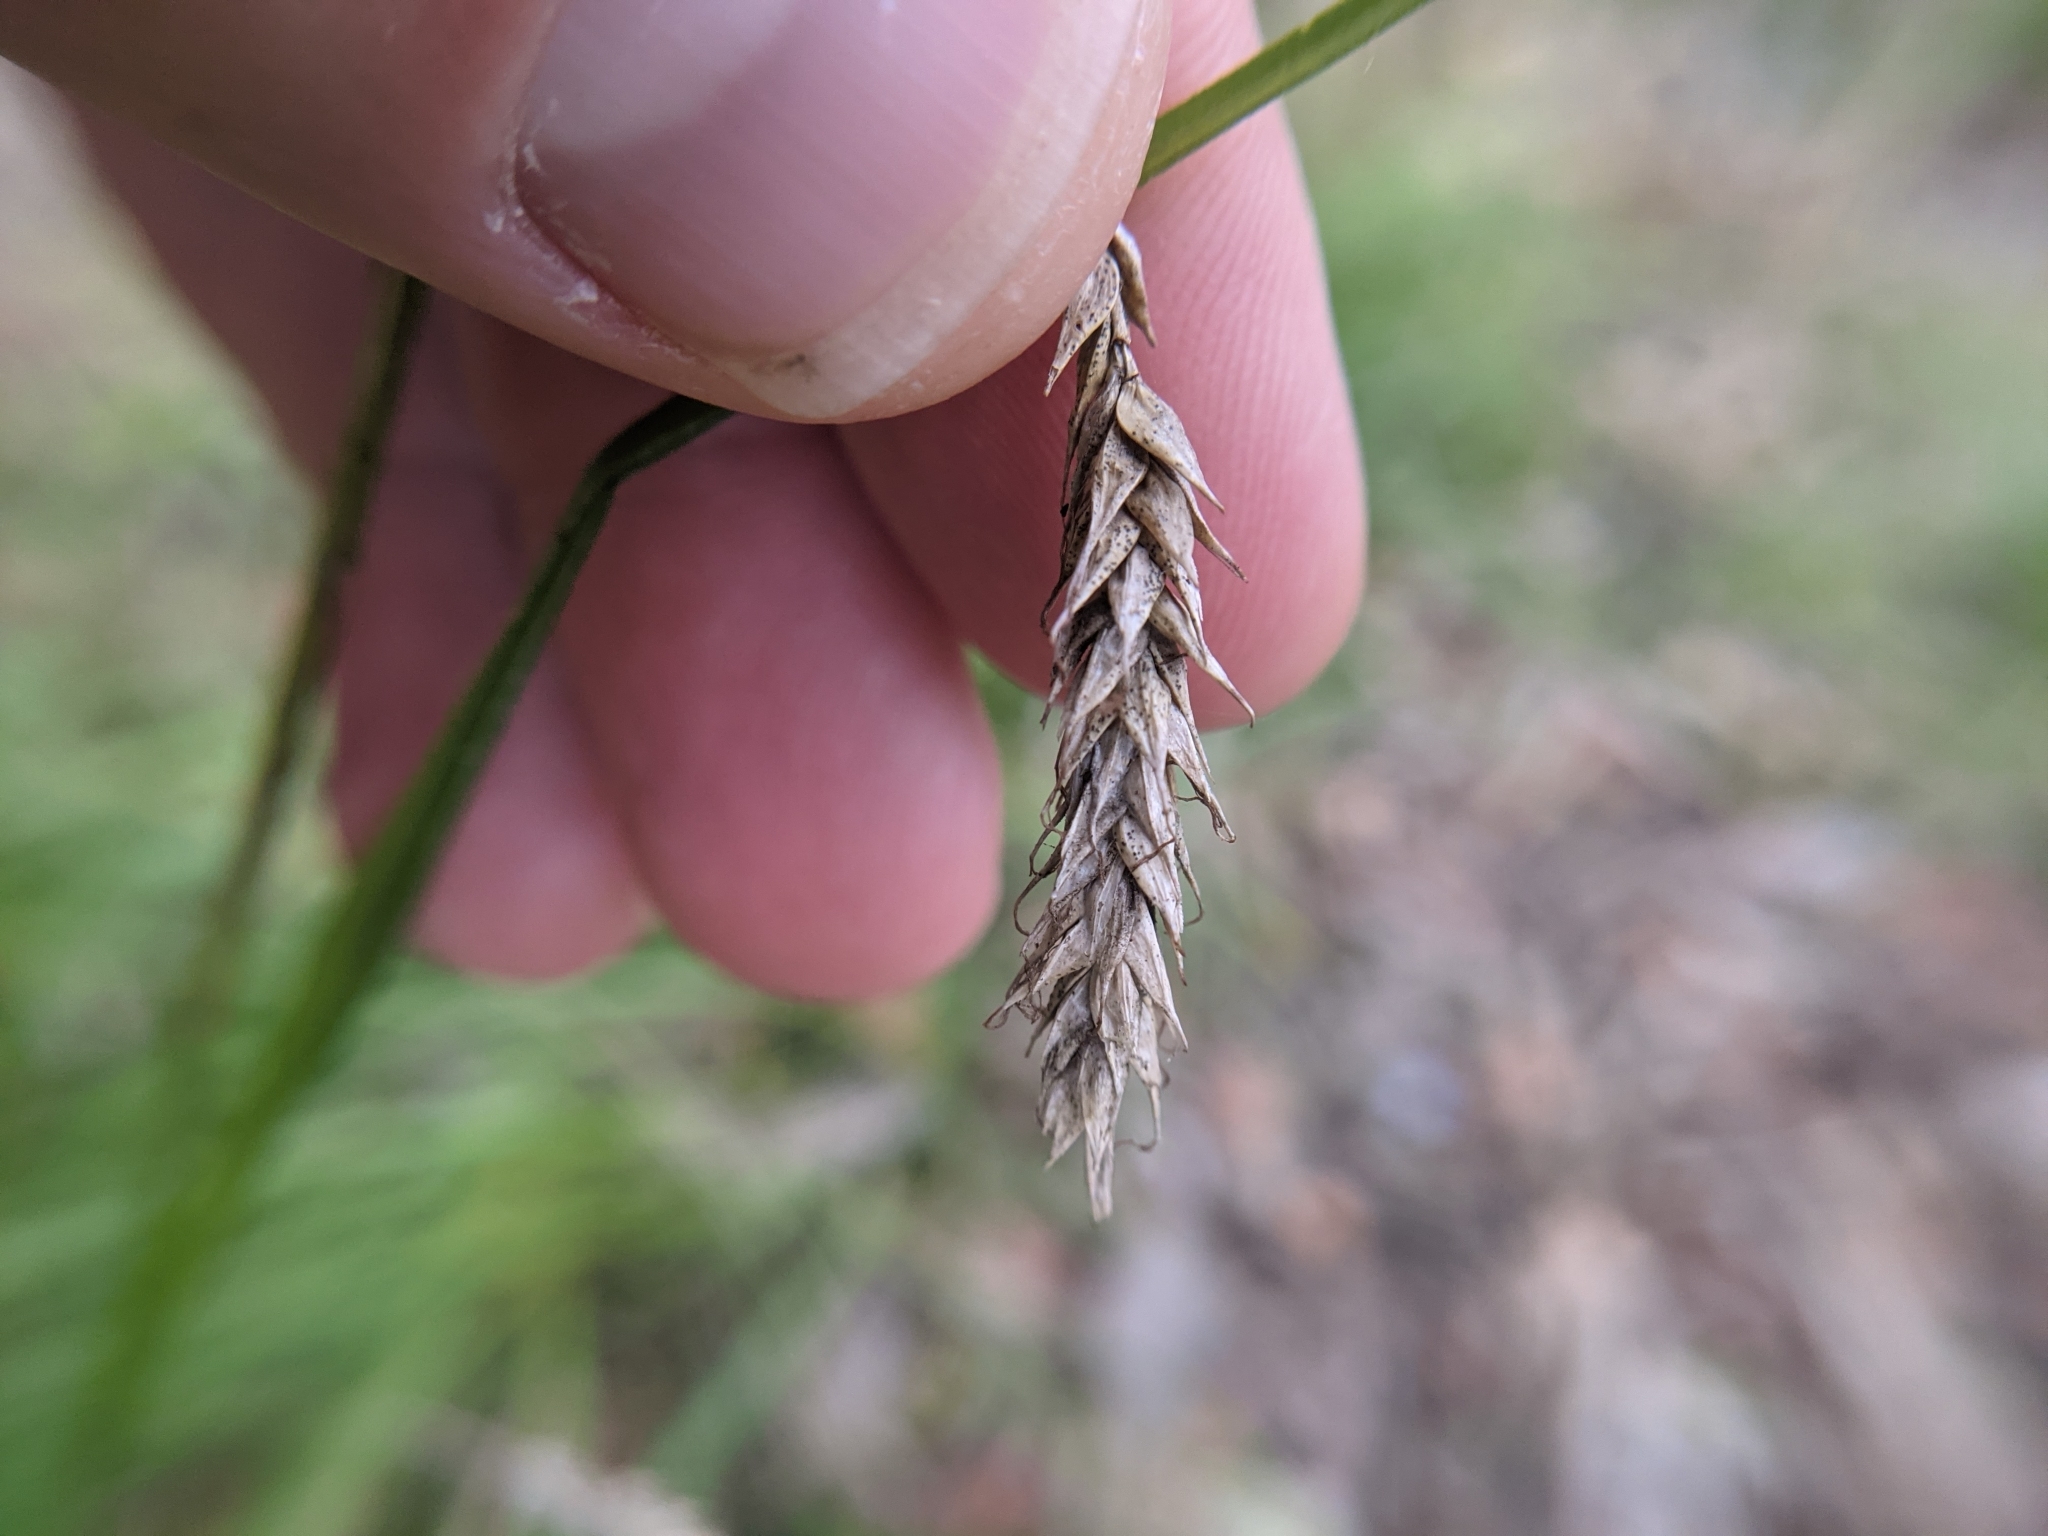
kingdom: Plantae
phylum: Tracheophyta
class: Liliopsida
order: Poales
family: Cyperaceae
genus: Carex
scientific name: Carex cherokeensis
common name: Cherokee sedge
